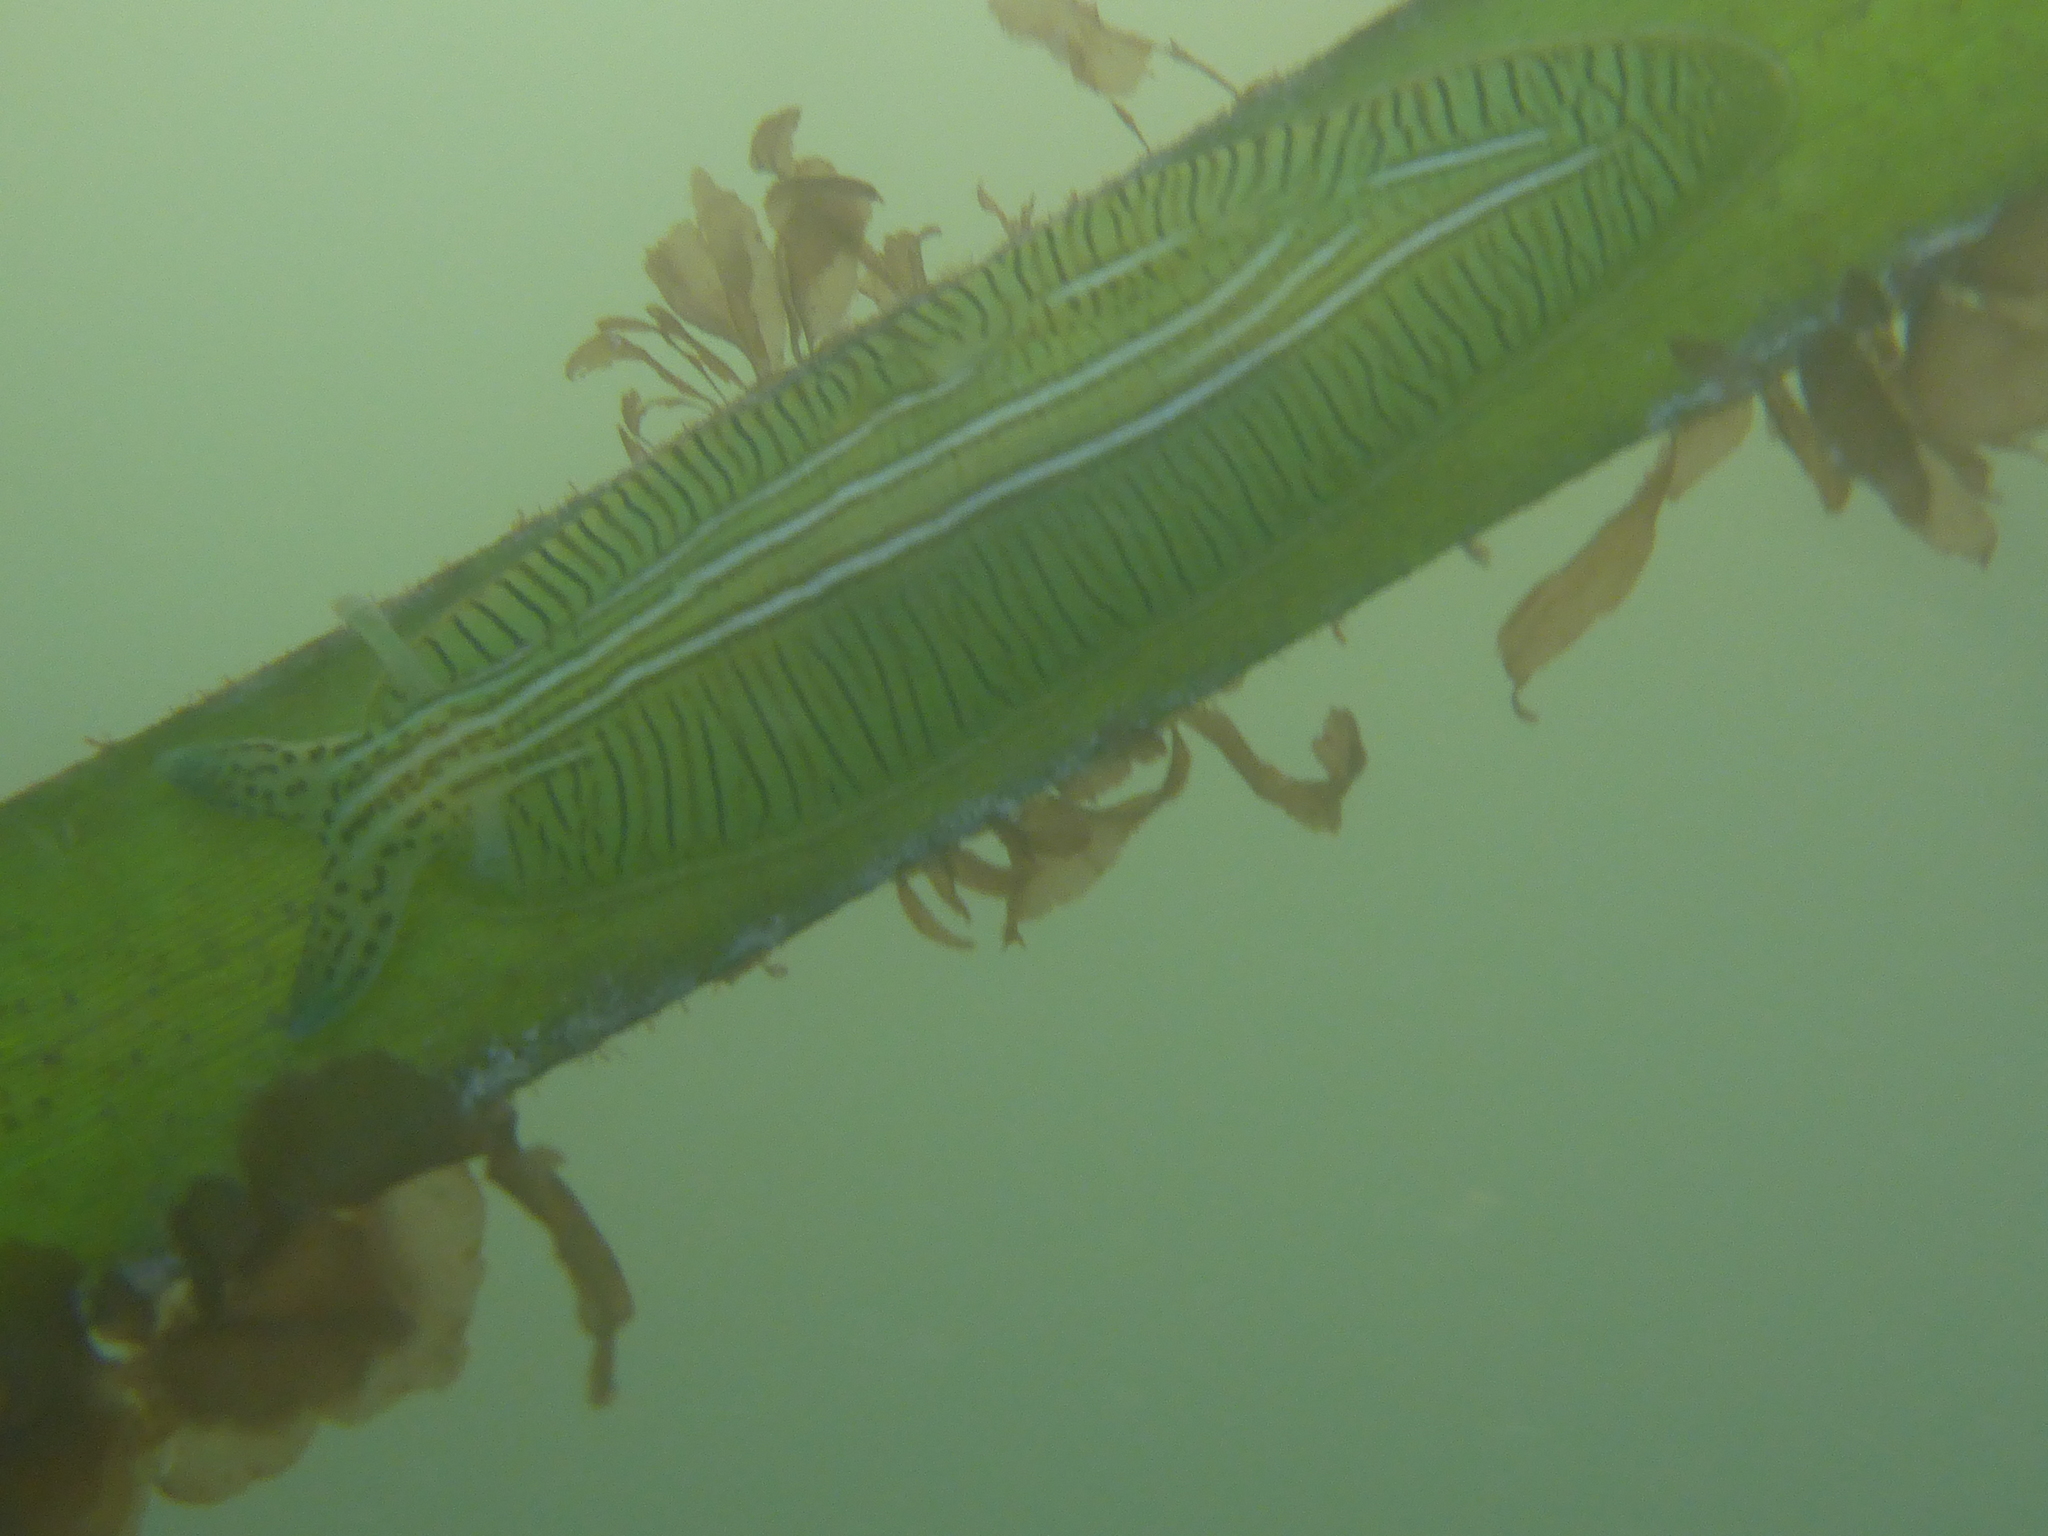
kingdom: Animalia
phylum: Mollusca
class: Gastropoda
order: Aplysiida
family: Aplysiidae
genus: Phyllaplysia
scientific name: Phyllaplysia taylori
